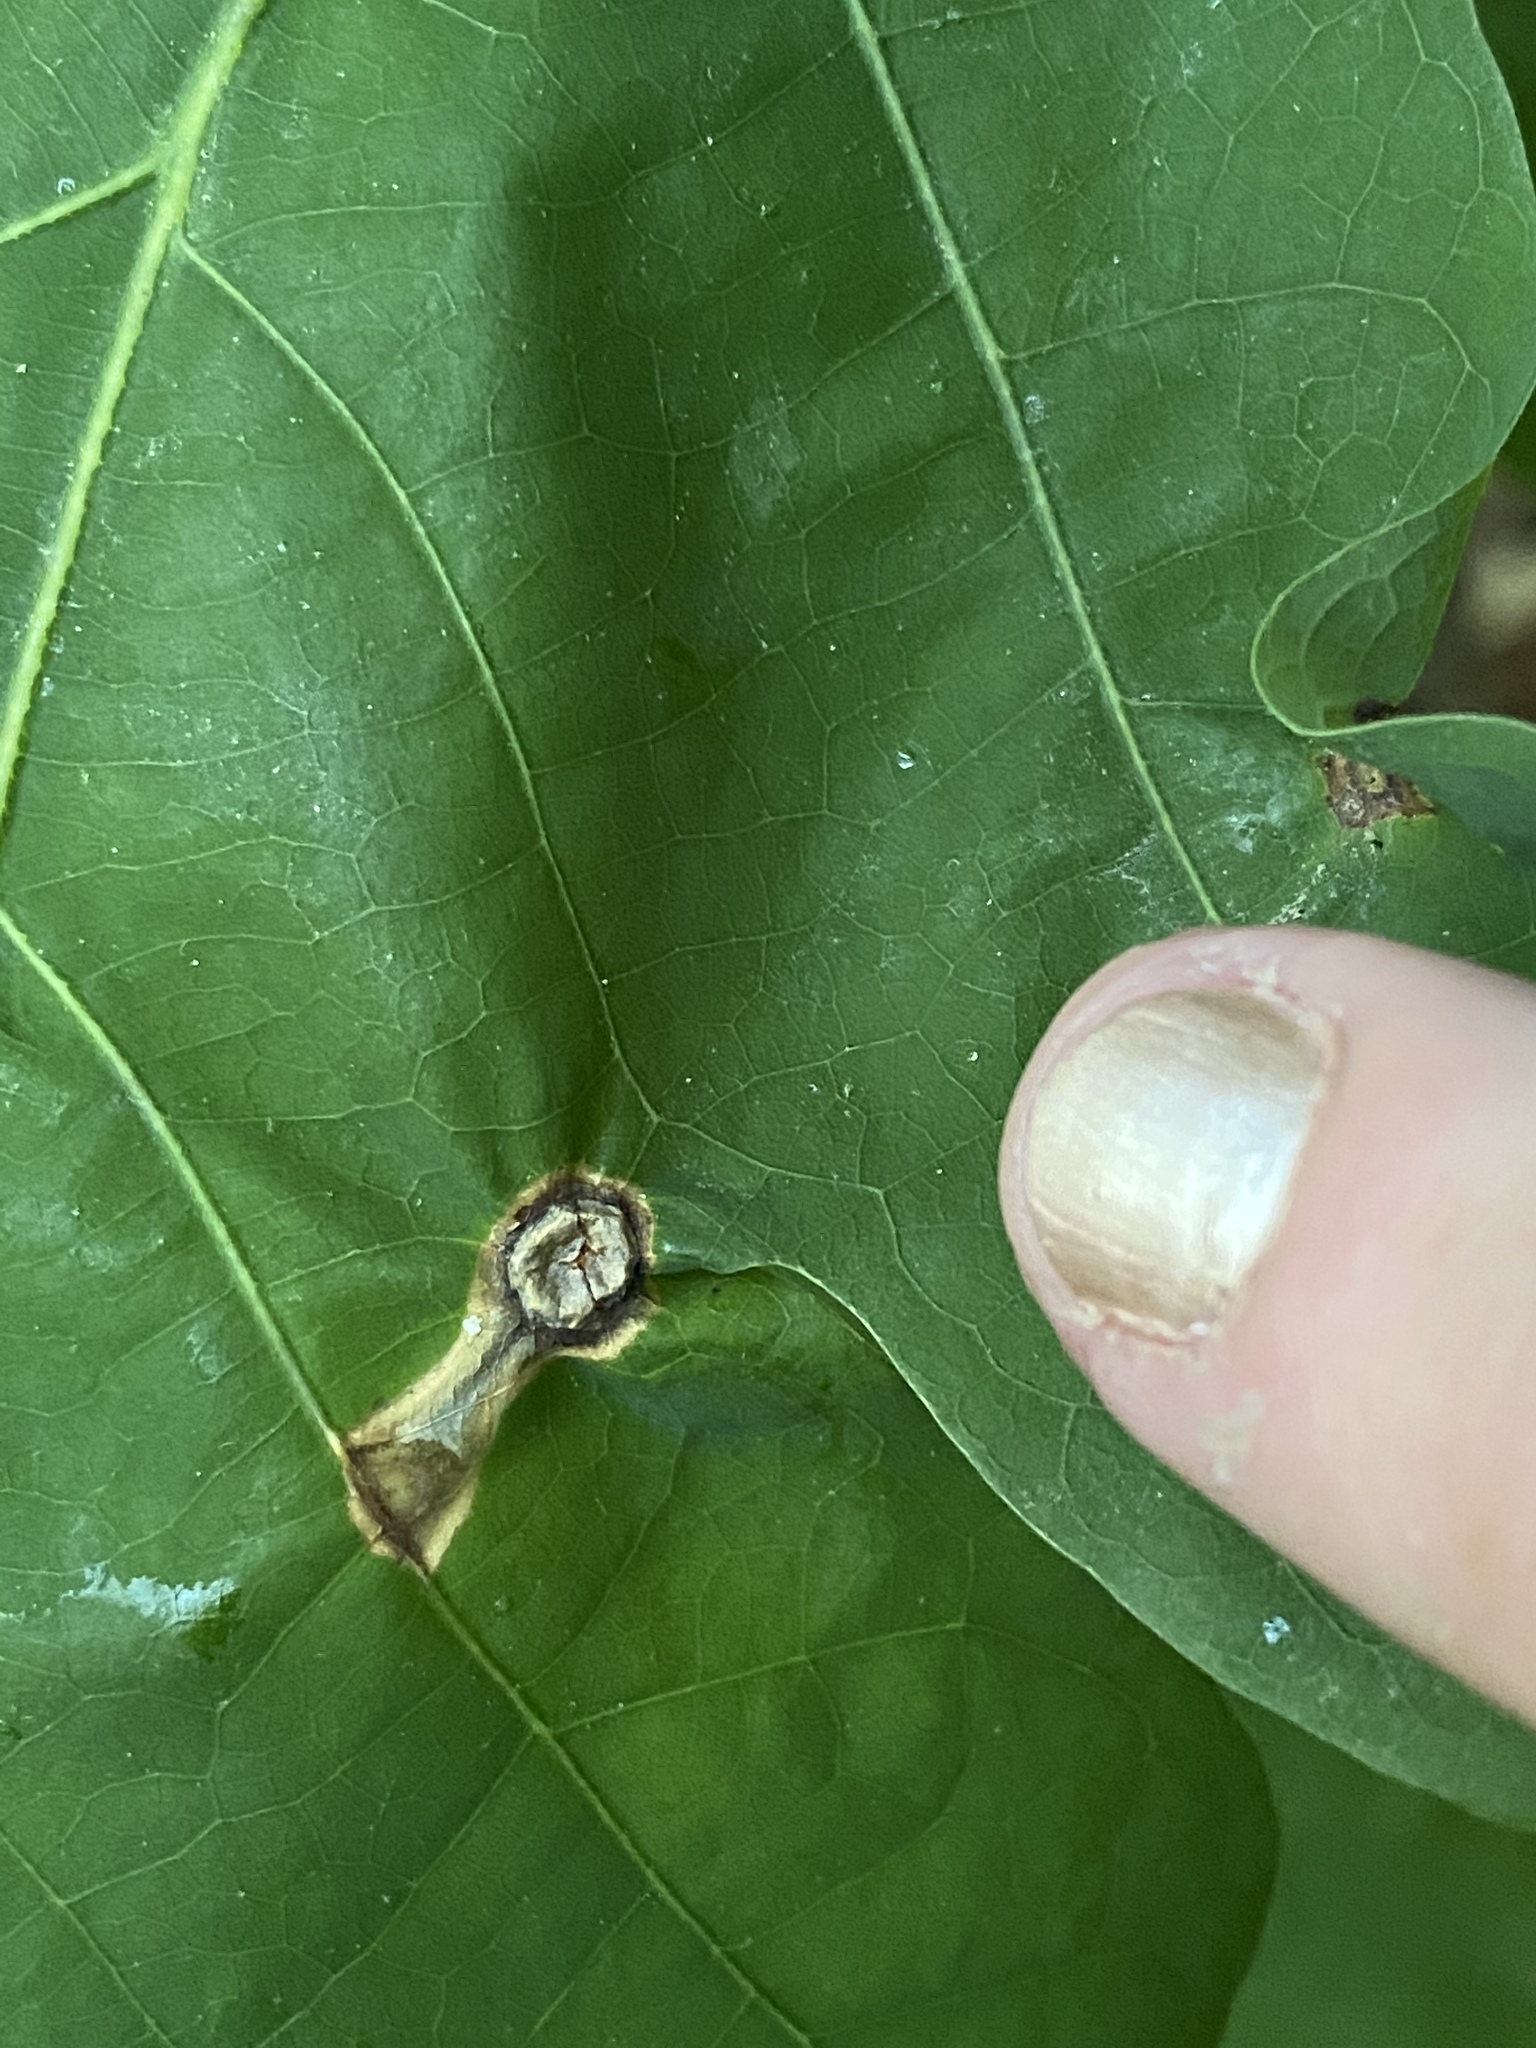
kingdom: Animalia
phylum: Arthropoda
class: Insecta
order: Hymenoptera
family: Cynipidae
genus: Callirhytis
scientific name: Callirhytis
